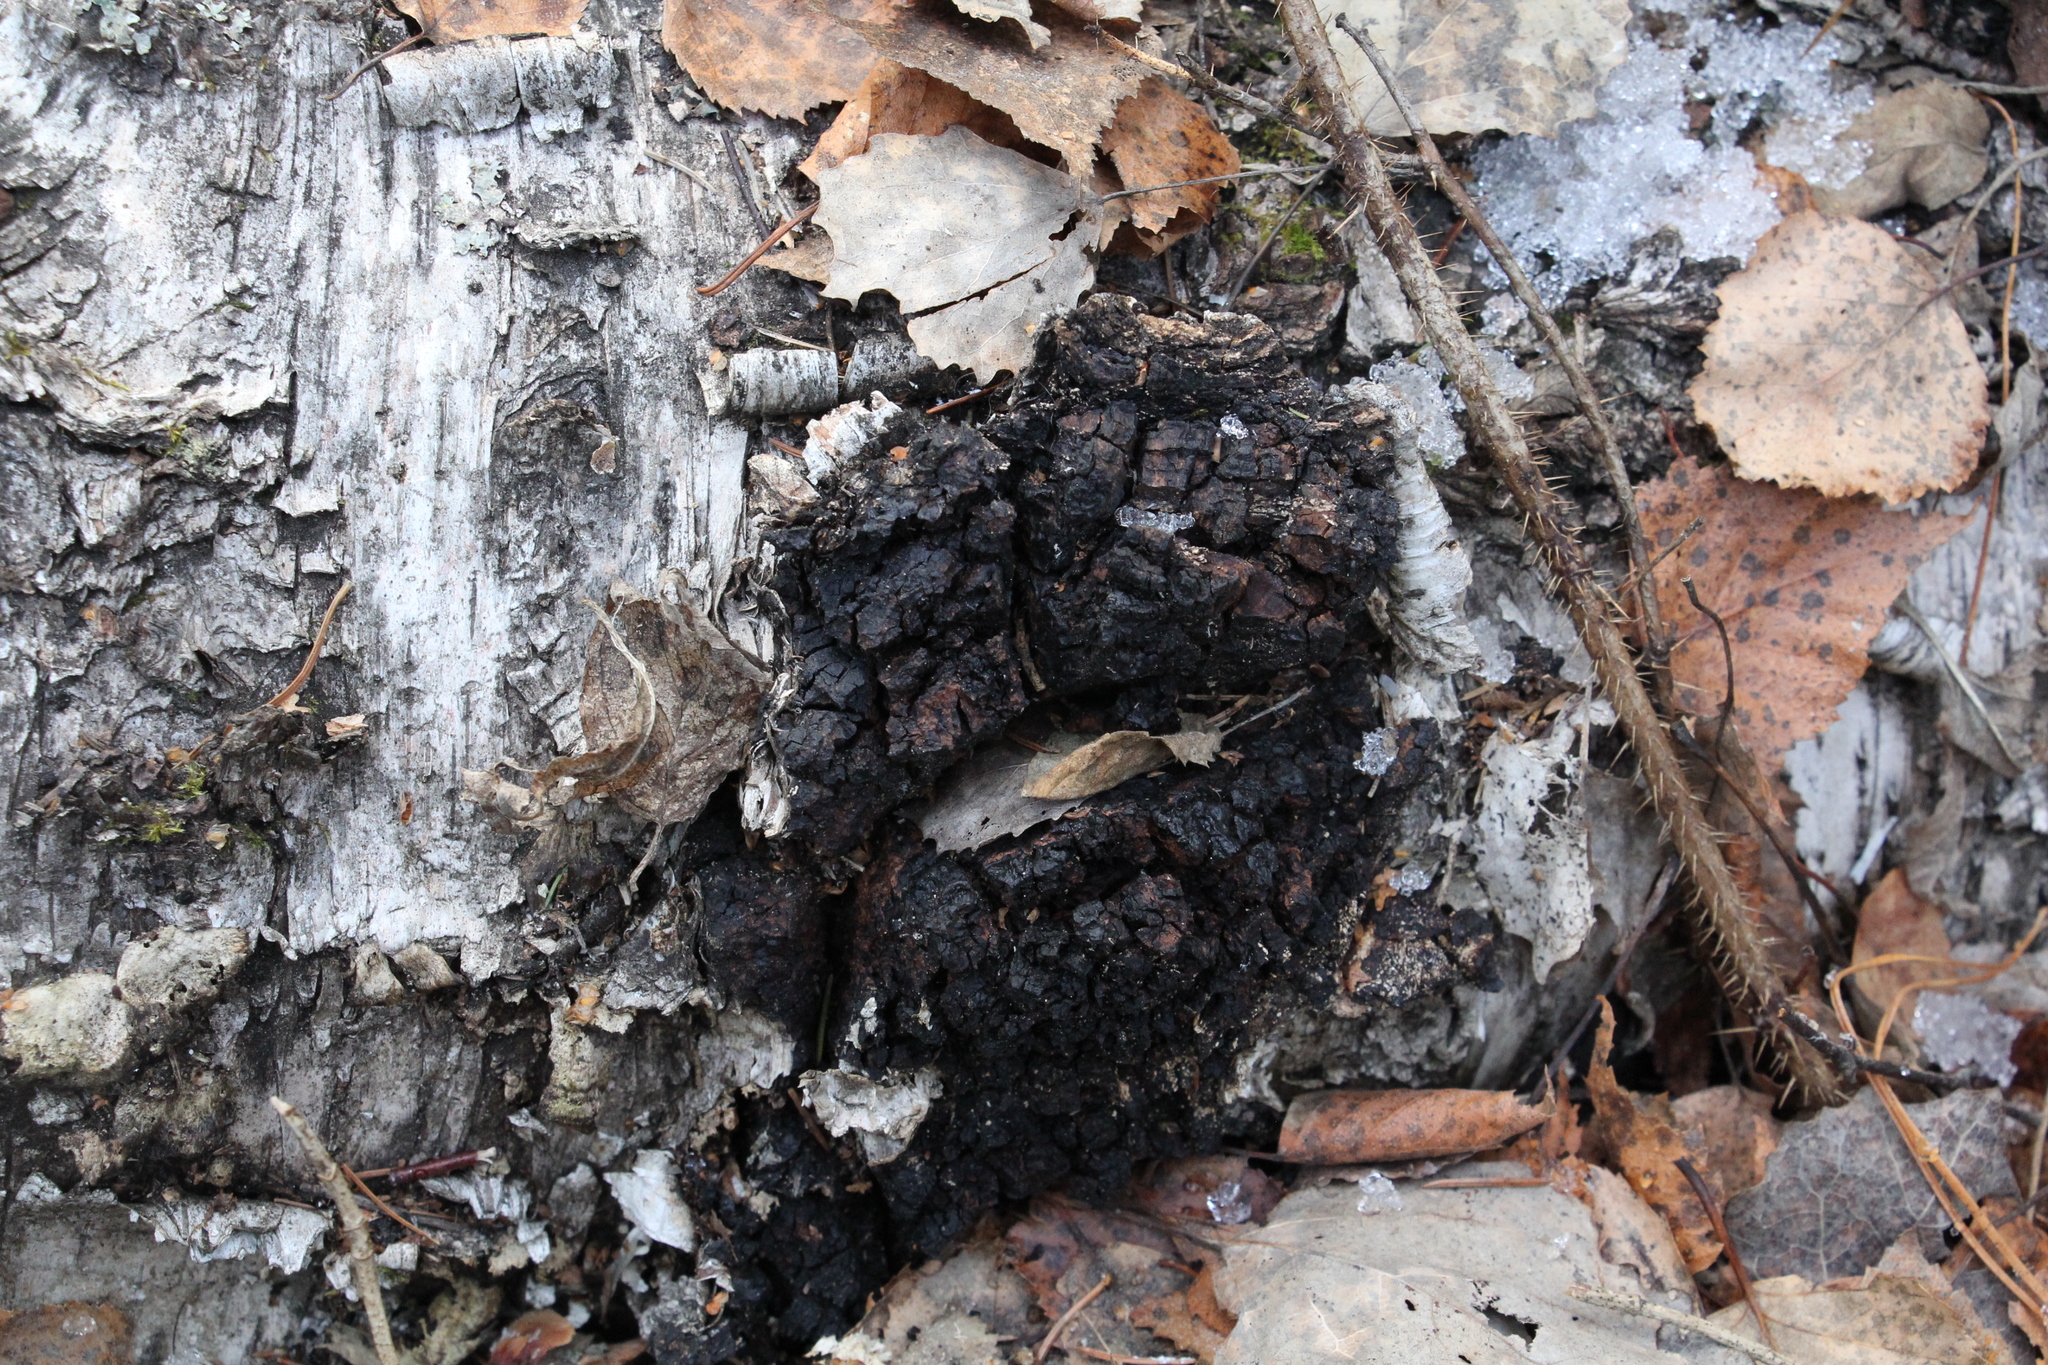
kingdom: Fungi
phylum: Basidiomycota
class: Agaricomycetes
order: Hymenochaetales
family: Hymenochaetaceae
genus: Inonotus
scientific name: Inonotus obliquus
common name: Chaga
